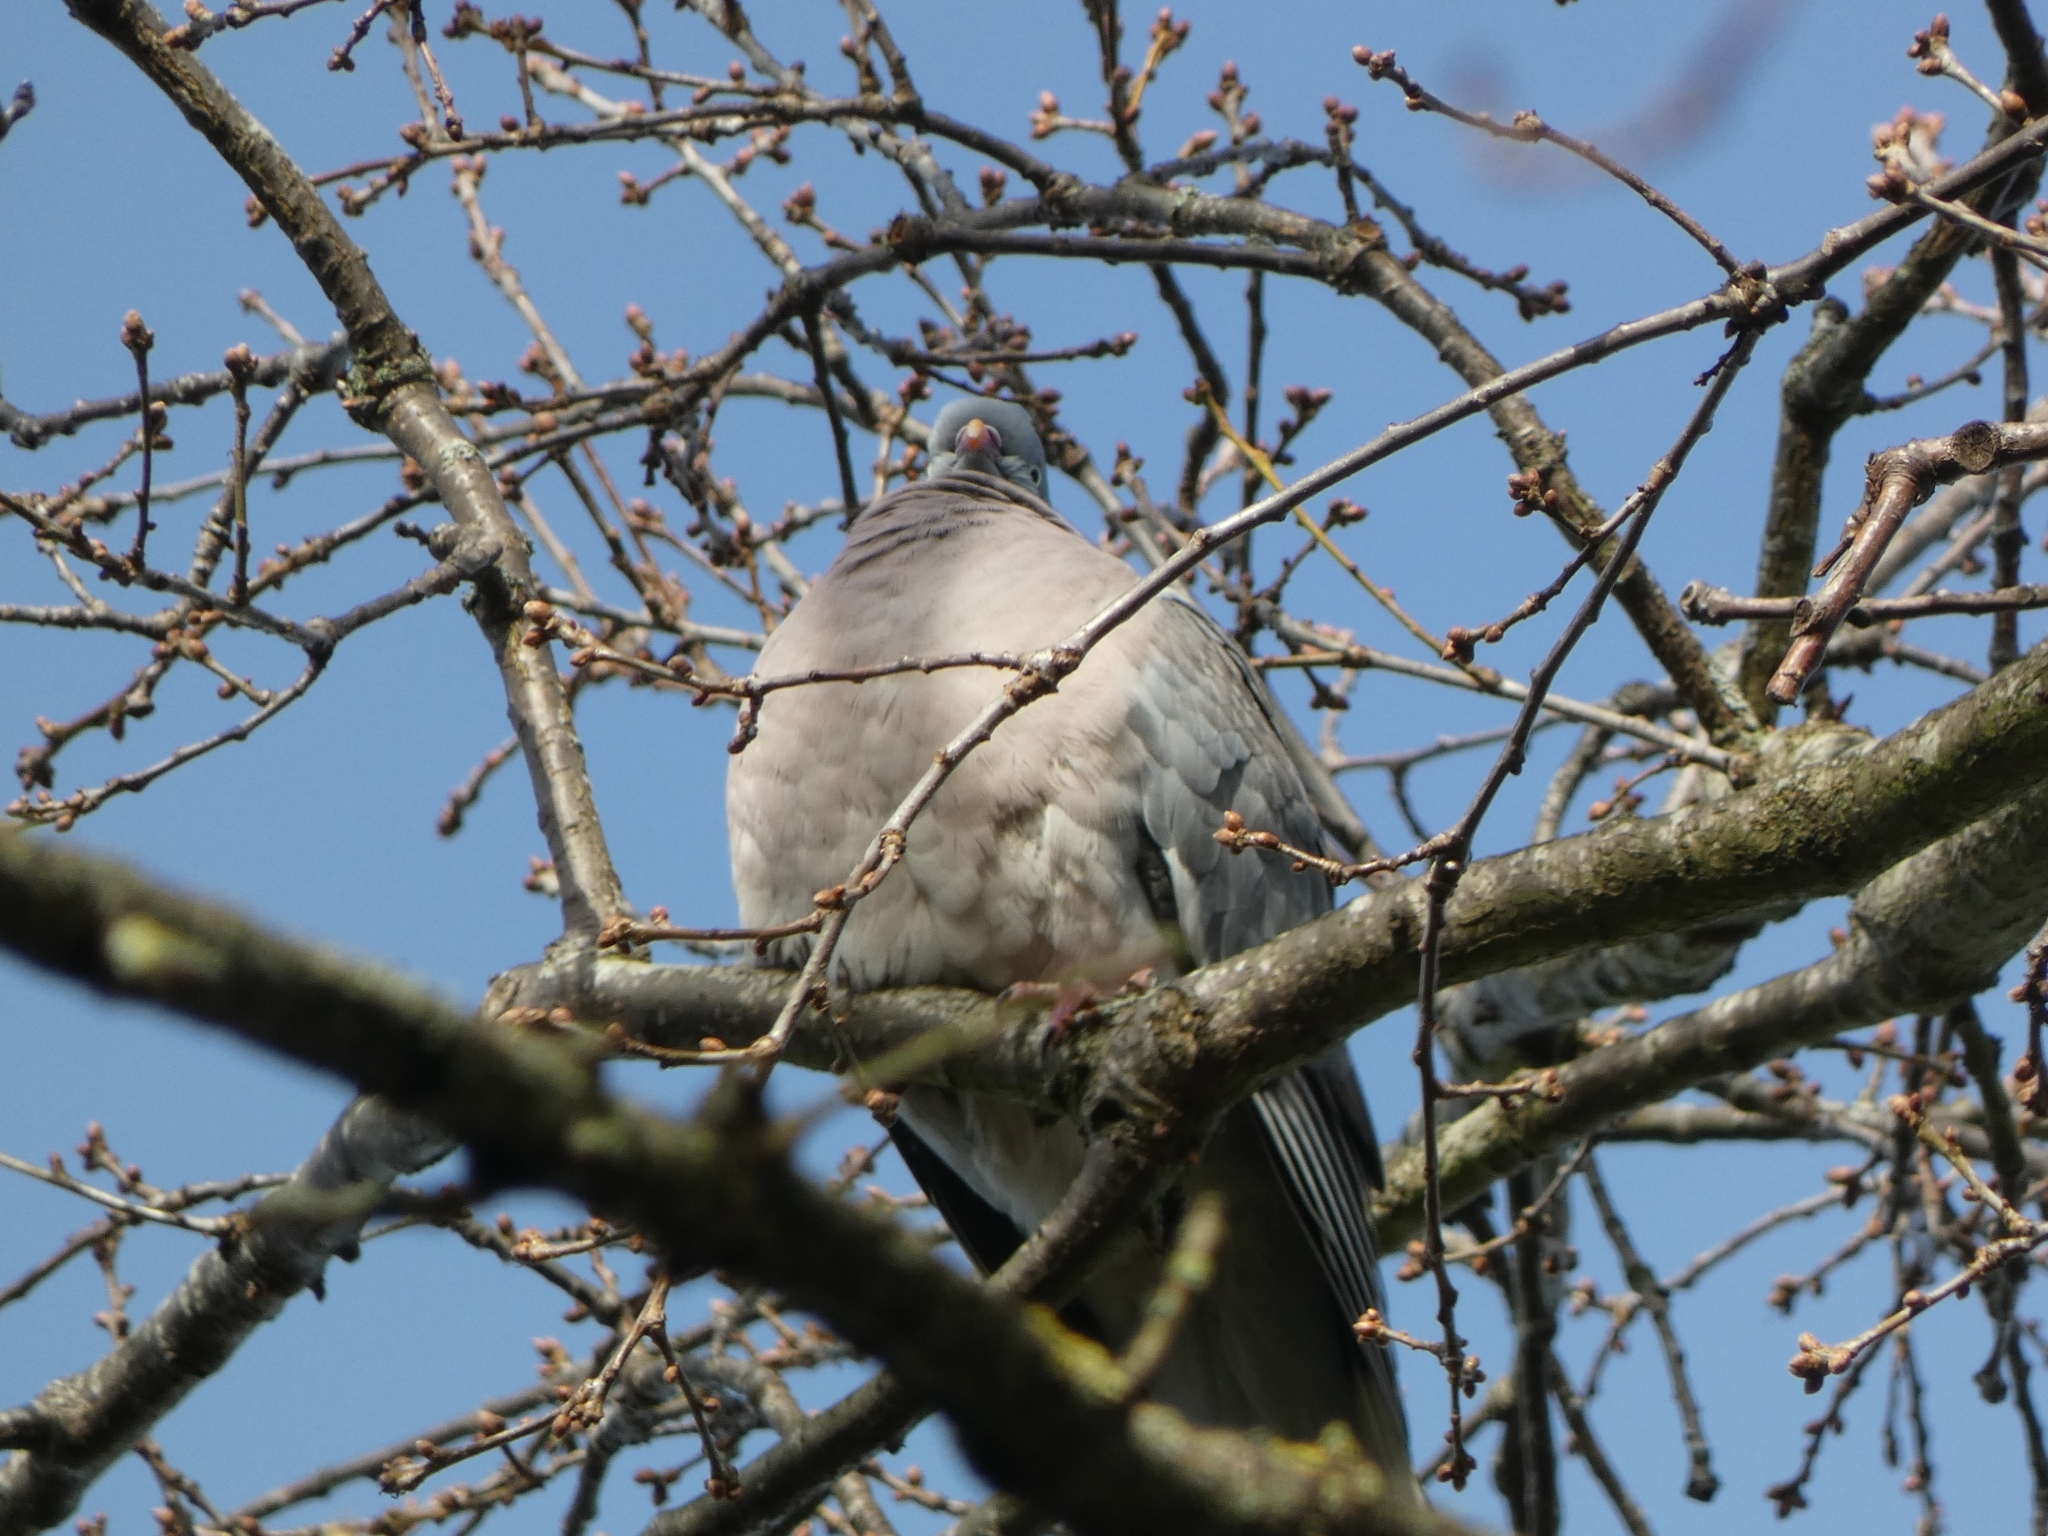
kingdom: Animalia
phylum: Chordata
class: Aves
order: Columbiformes
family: Columbidae
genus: Columba
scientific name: Columba palumbus
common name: Common wood pigeon
